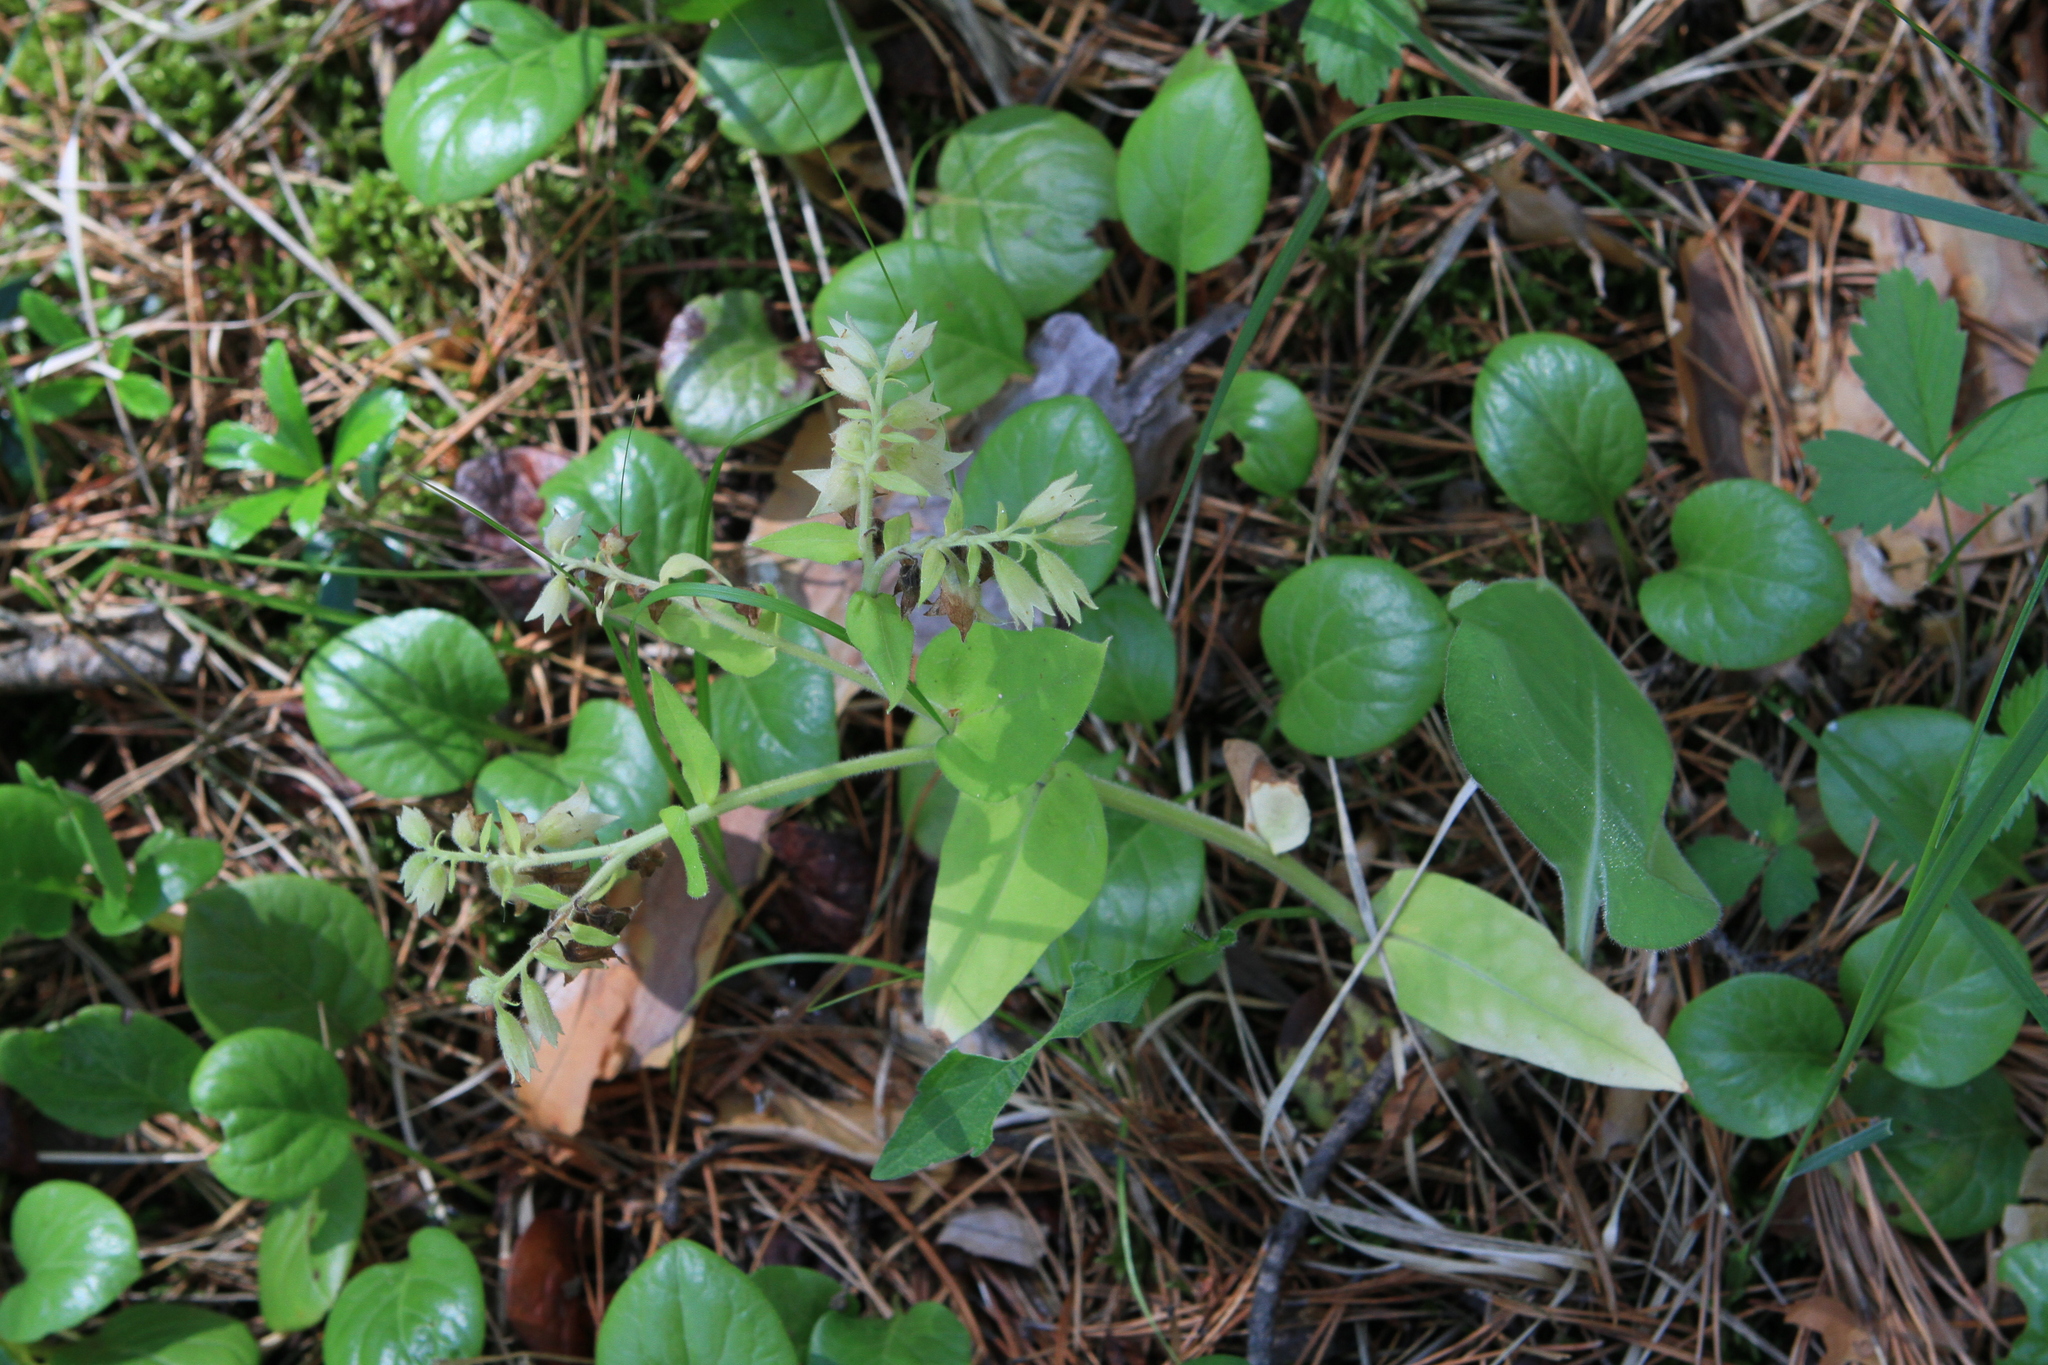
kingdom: Plantae
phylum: Tracheophyta
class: Magnoliopsida
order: Boraginales
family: Boraginaceae
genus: Pulmonaria
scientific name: Pulmonaria mollis
